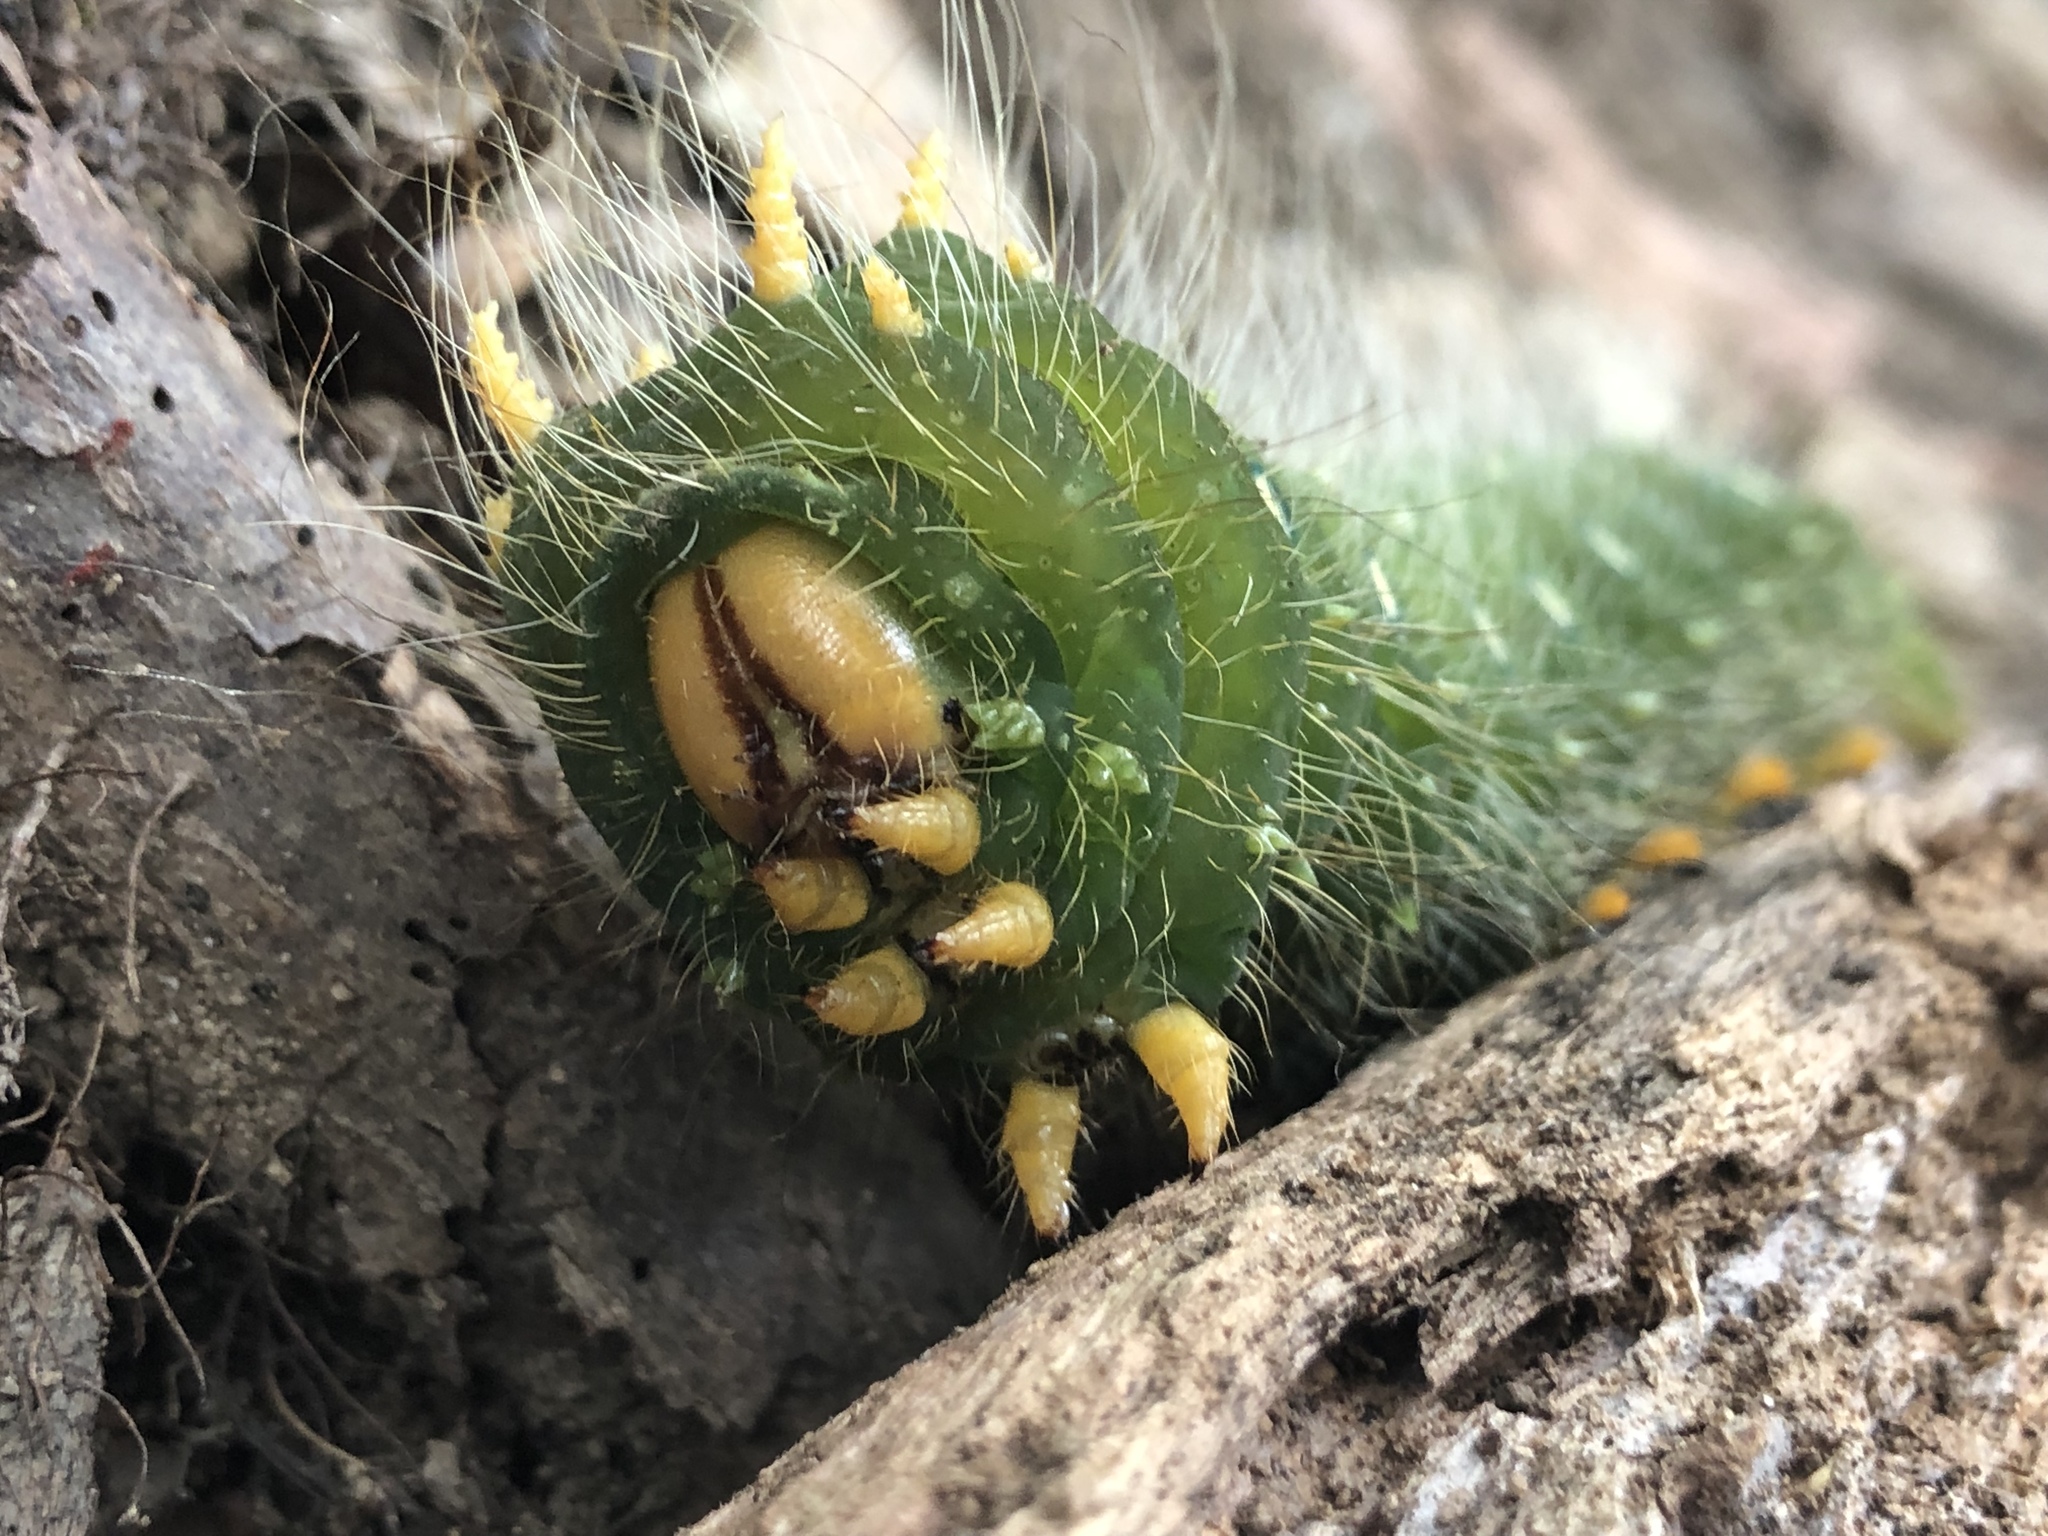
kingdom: Animalia
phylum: Arthropoda
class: Insecta
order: Lepidoptera
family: Saturniidae
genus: Eacles
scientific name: Eacles imperialis
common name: Imperial moth
